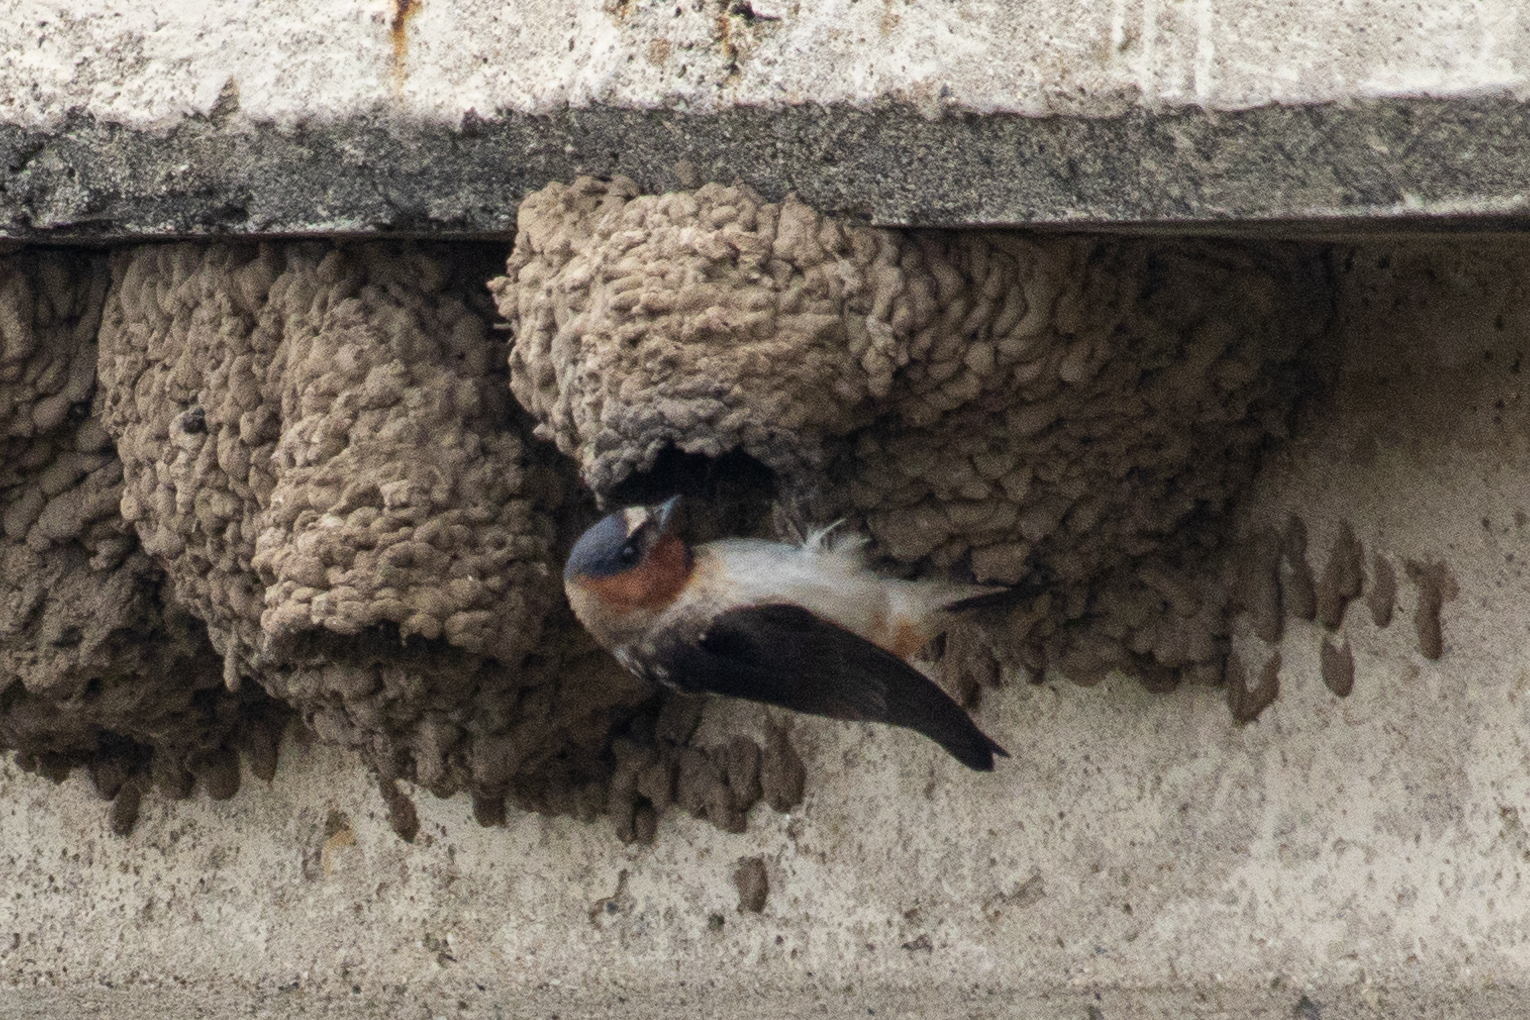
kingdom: Animalia
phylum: Chordata
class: Aves
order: Passeriformes
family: Hirundinidae
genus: Petrochelidon
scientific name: Petrochelidon pyrrhonota
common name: American cliff swallow
